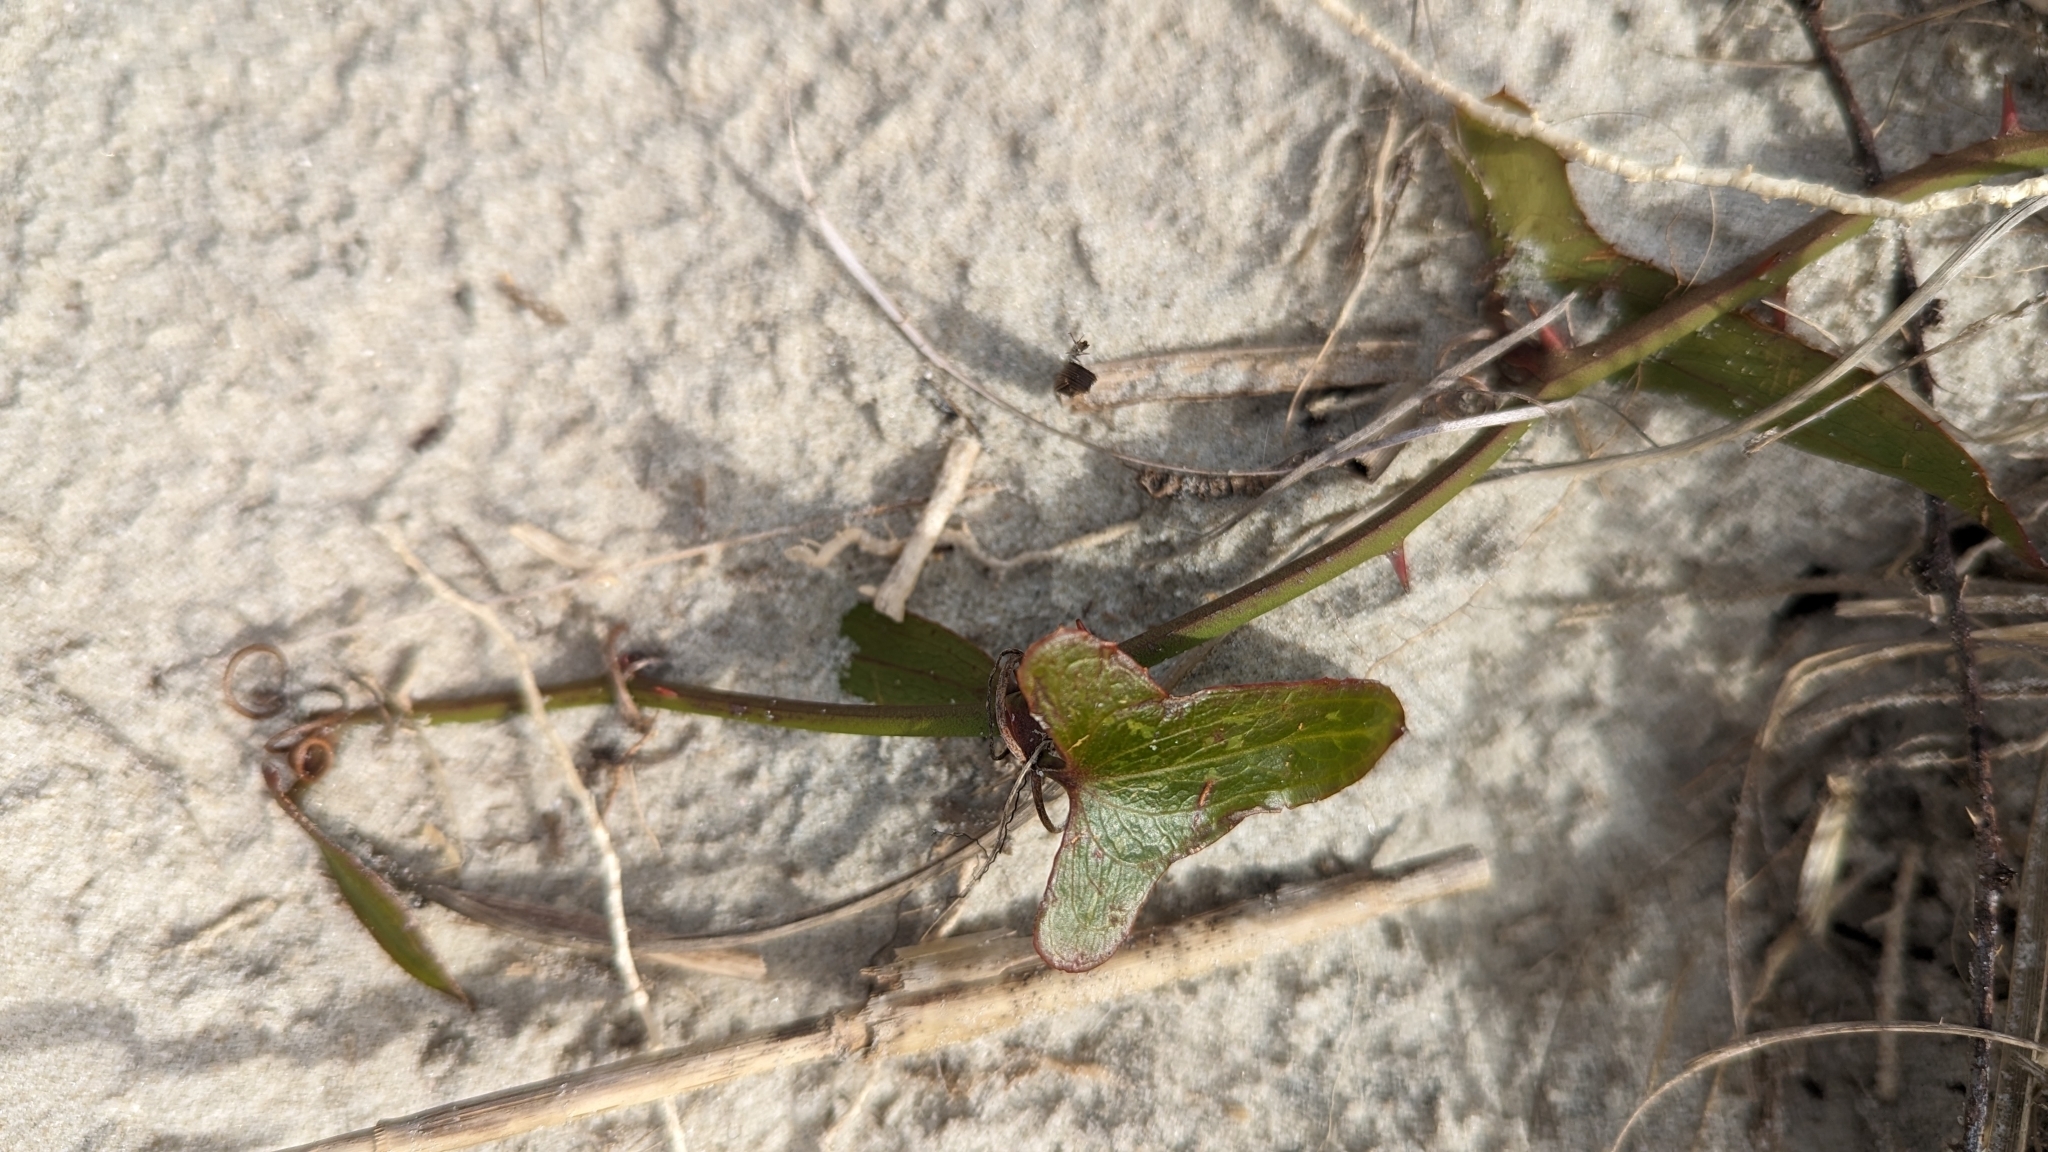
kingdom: Plantae
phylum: Tracheophyta
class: Liliopsida
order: Liliales
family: Smilacaceae
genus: Smilax
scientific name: Smilax bona-nox
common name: Catbrier
